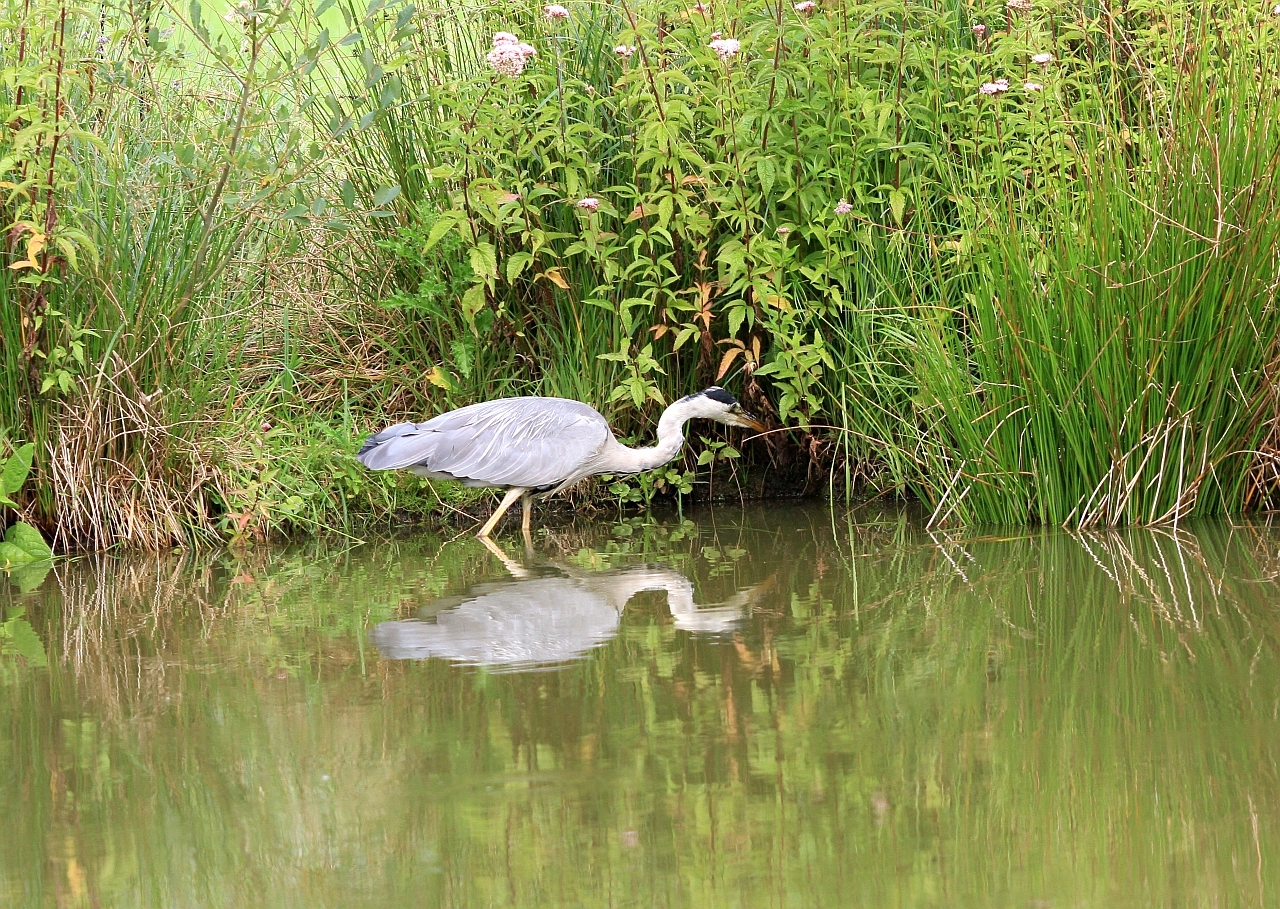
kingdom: Animalia
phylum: Chordata
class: Aves
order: Pelecaniformes
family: Ardeidae
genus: Ardea
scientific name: Ardea cinerea
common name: Grey heron
